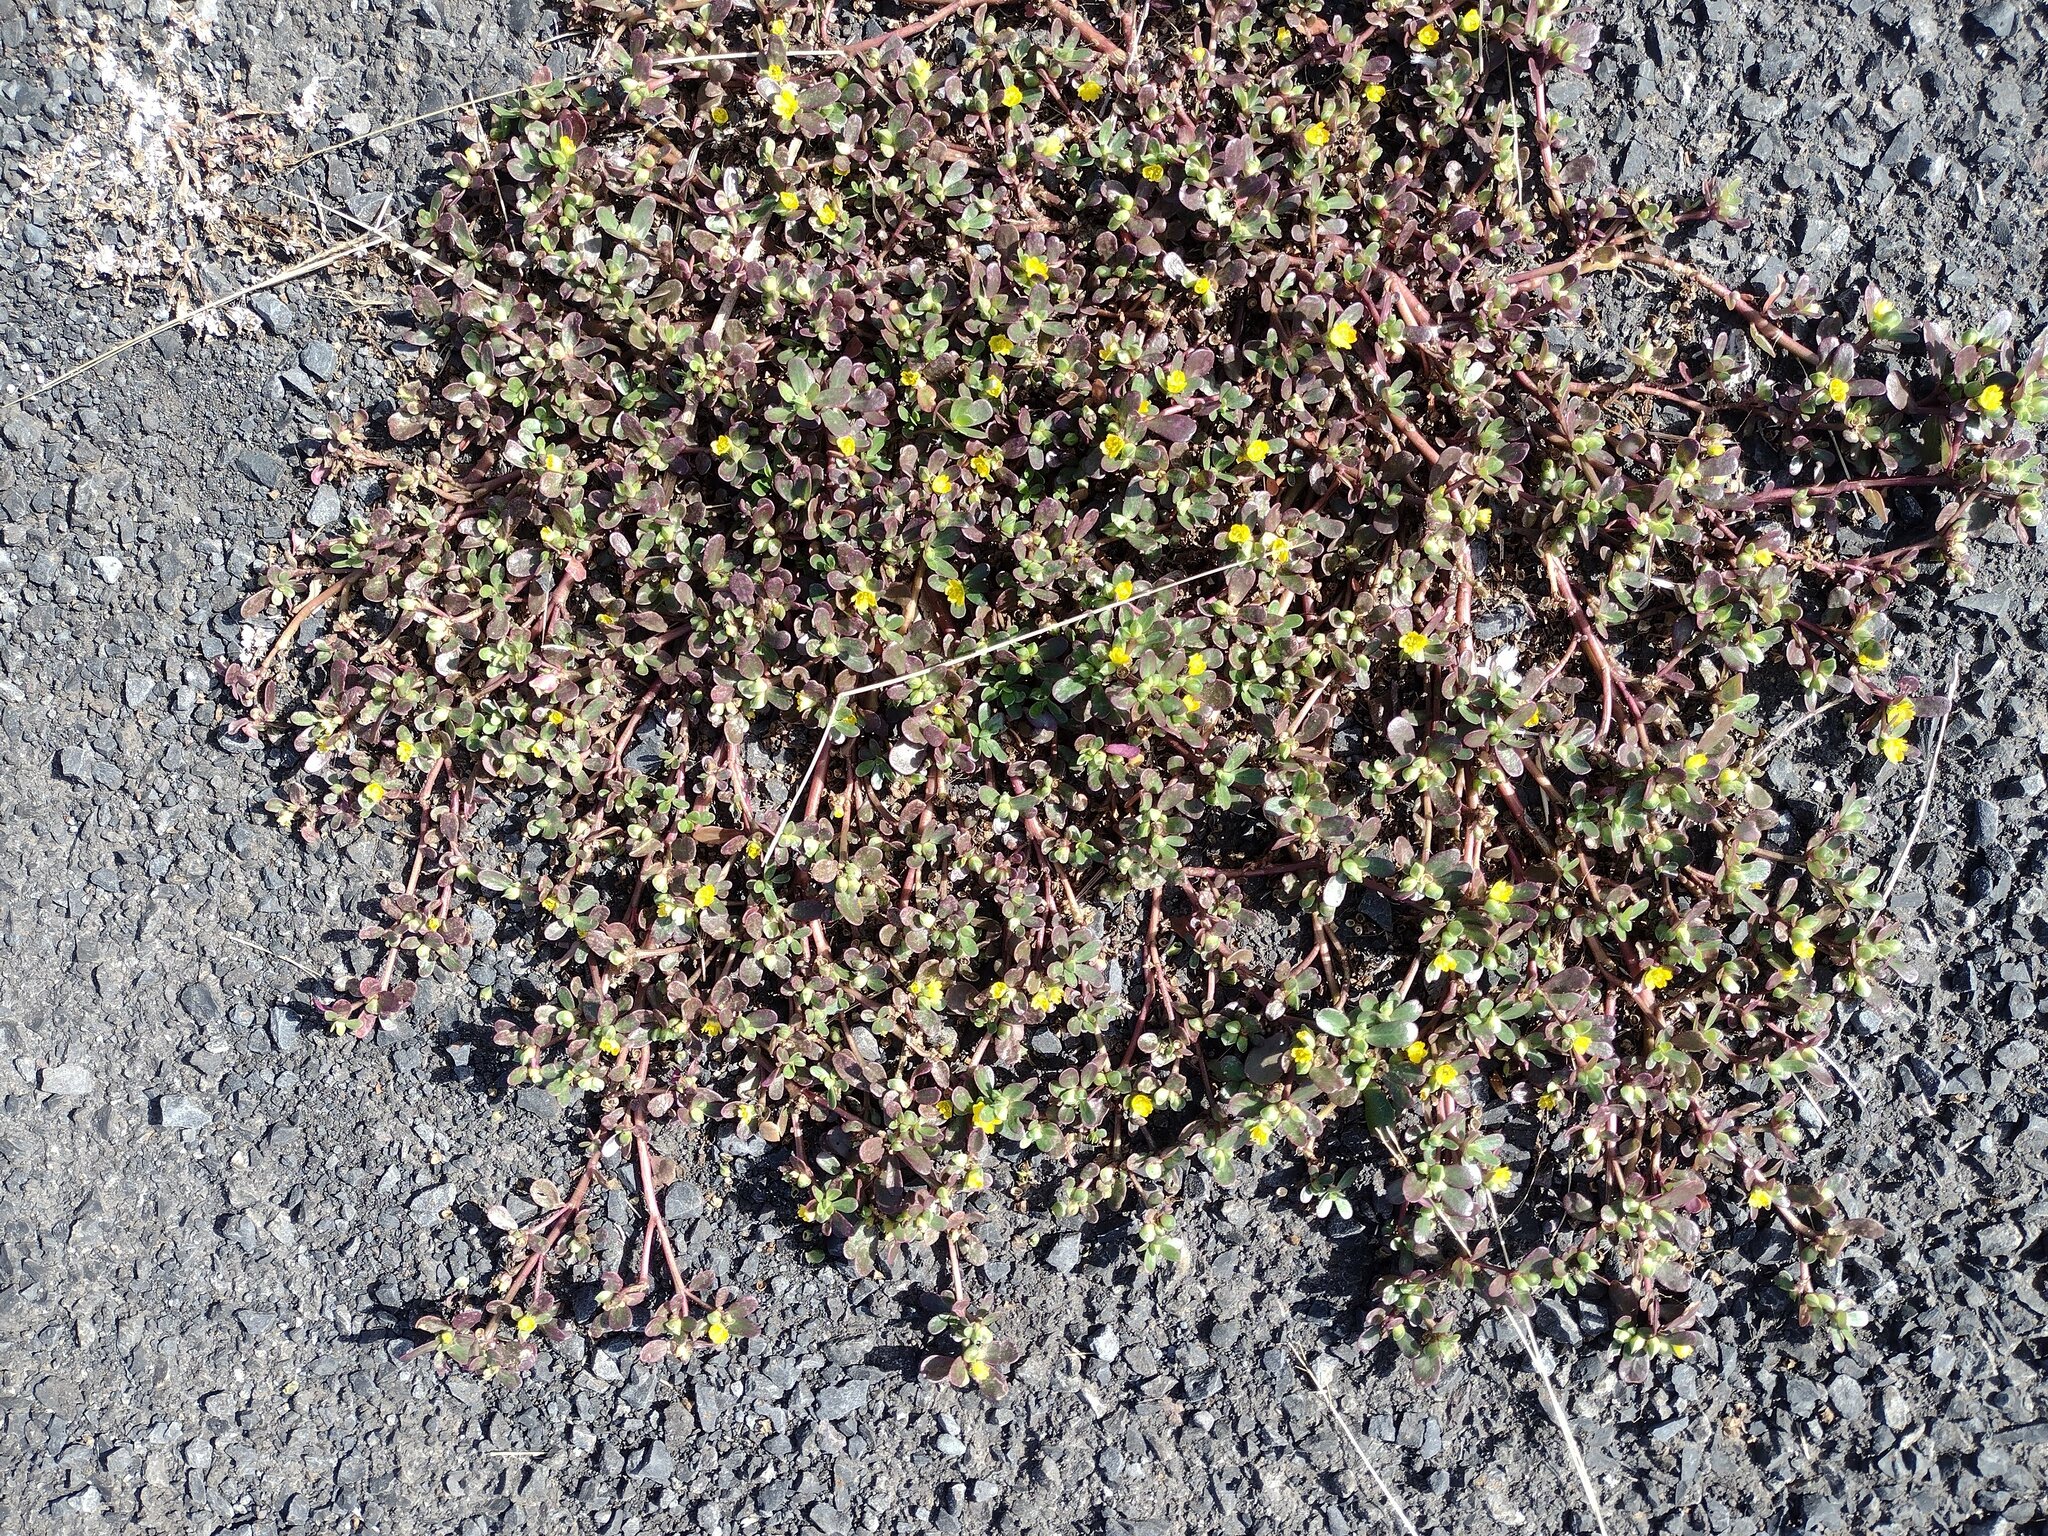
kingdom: Plantae
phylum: Tracheophyta
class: Magnoliopsida
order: Caryophyllales
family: Portulacaceae
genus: Portulaca
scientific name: Portulaca oleracea
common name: Common purslane
